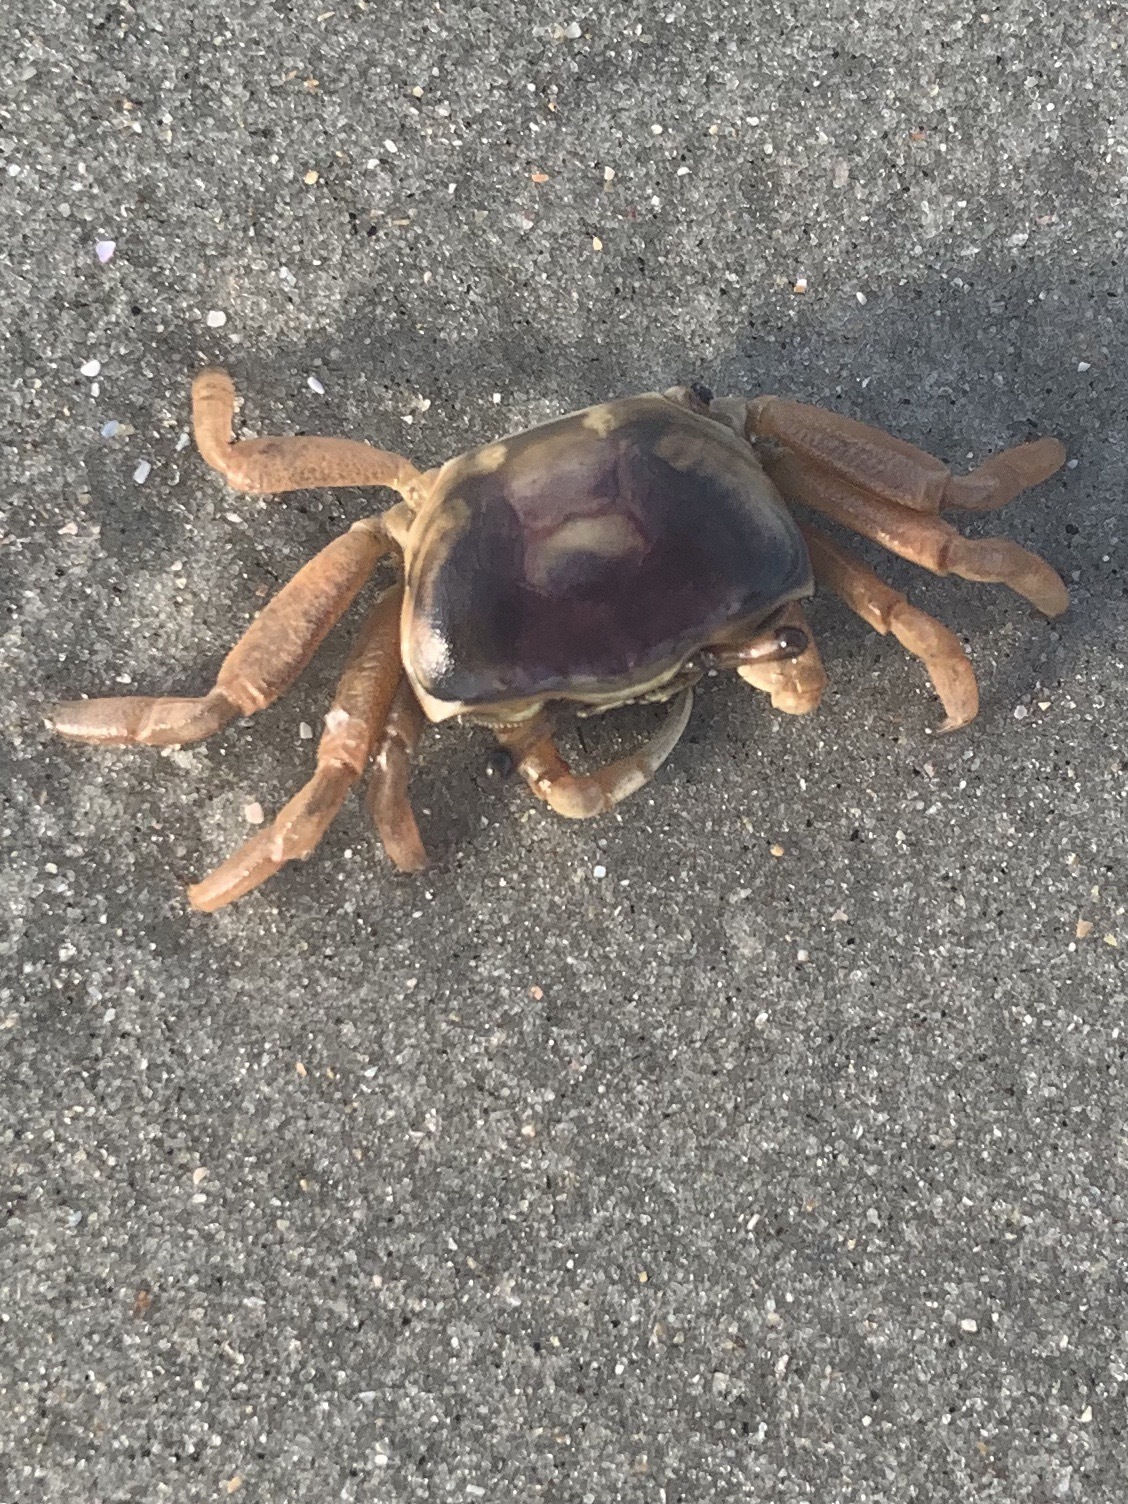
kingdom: Animalia
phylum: Arthropoda
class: Malacostraca
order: Decapoda
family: Ocypodidae
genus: Ocypode
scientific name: Ocypode quadrata
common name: Ghost crab
